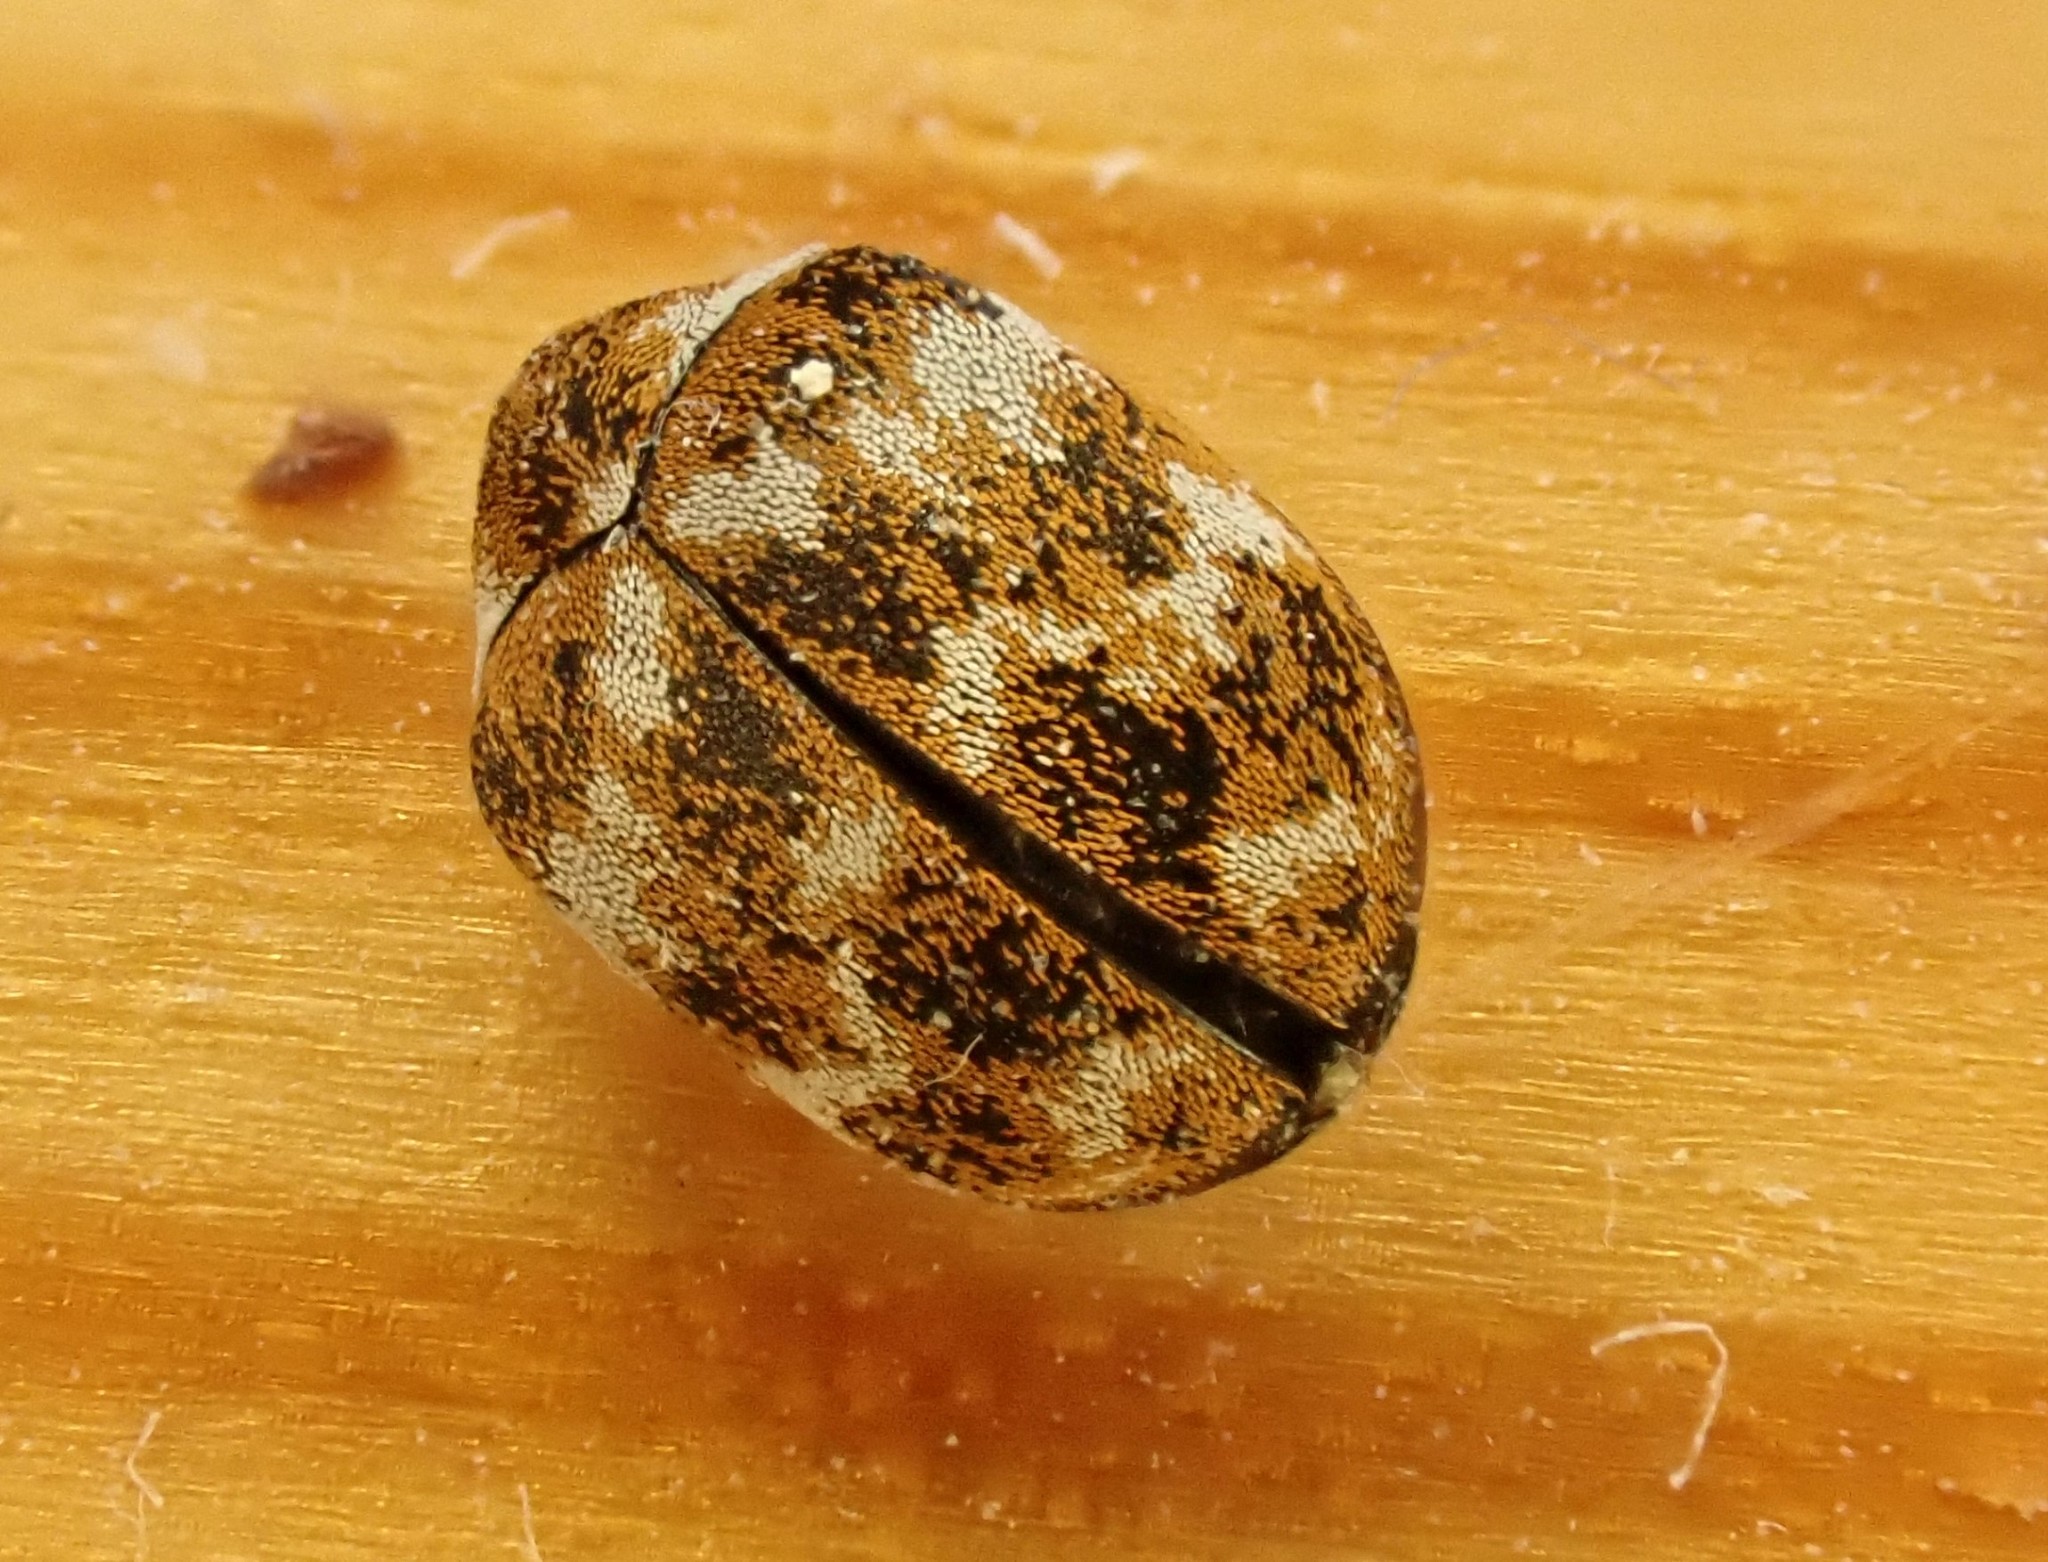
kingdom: Animalia
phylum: Arthropoda
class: Insecta
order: Coleoptera
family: Dermestidae
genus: Anthrenus
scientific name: Anthrenus verbasci
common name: Varied carpet beetle
